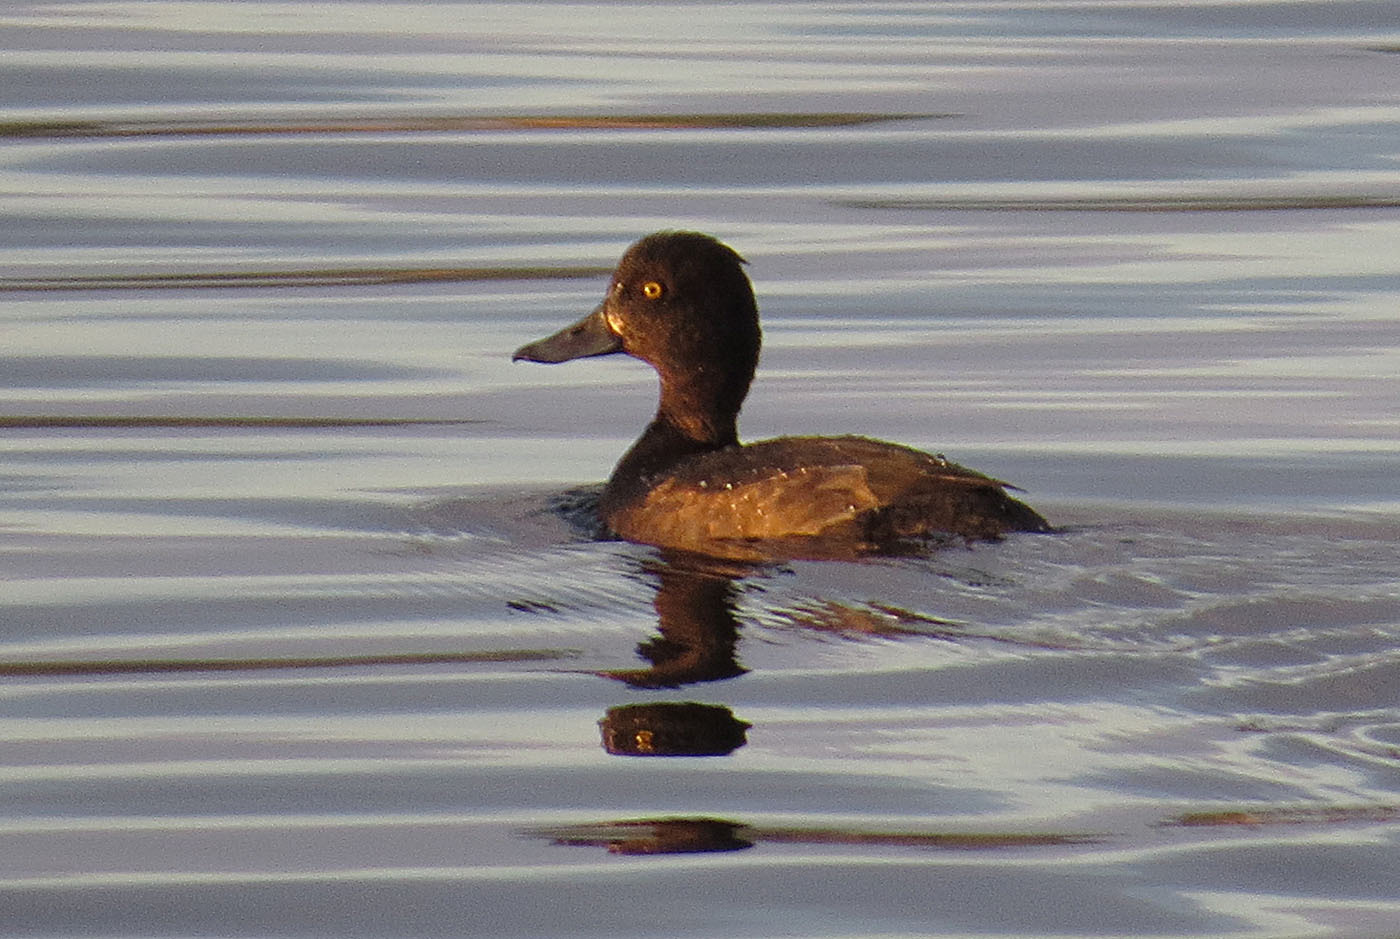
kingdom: Animalia
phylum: Chordata
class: Aves
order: Anseriformes
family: Anatidae
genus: Aythya
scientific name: Aythya fuligula
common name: Tufted duck
